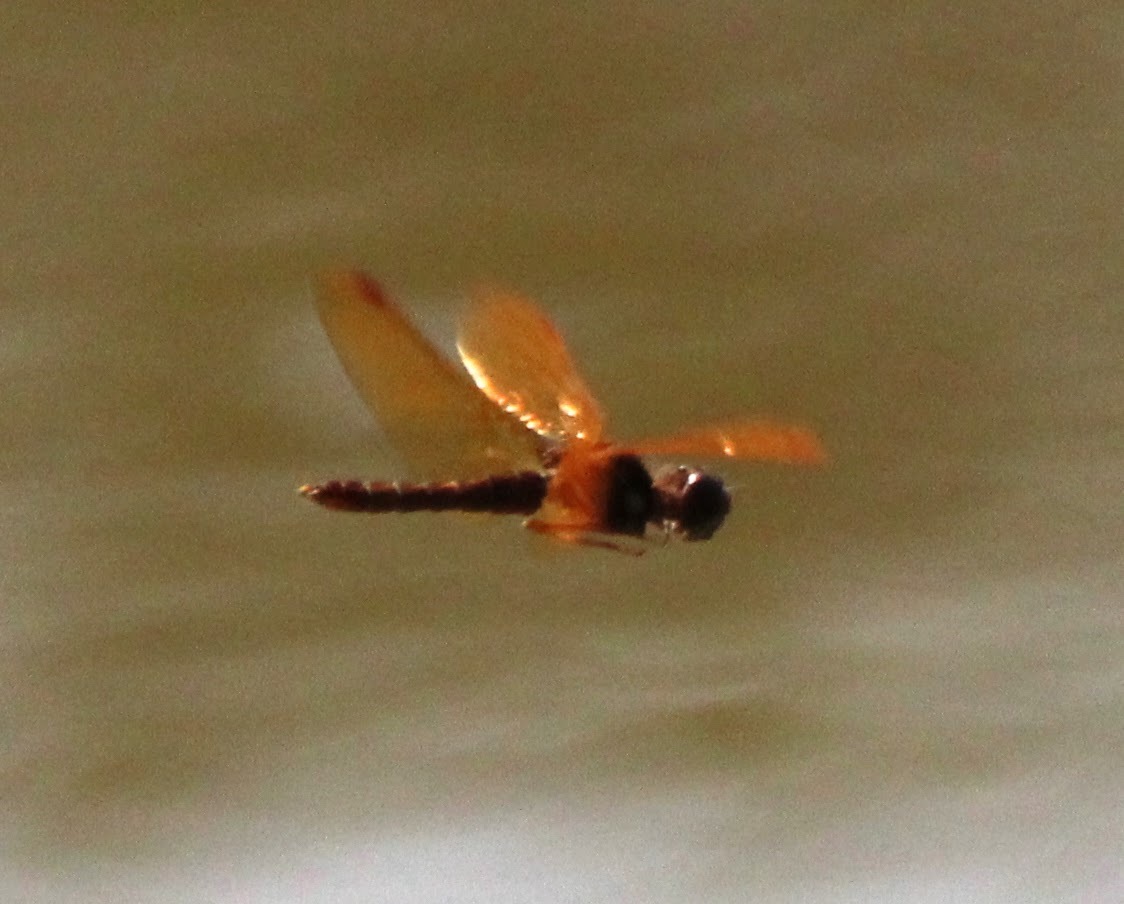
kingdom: Animalia
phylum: Arthropoda
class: Insecta
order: Odonata
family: Libellulidae
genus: Perithemis
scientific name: Perithemis tenera
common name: Eastern amberwing
